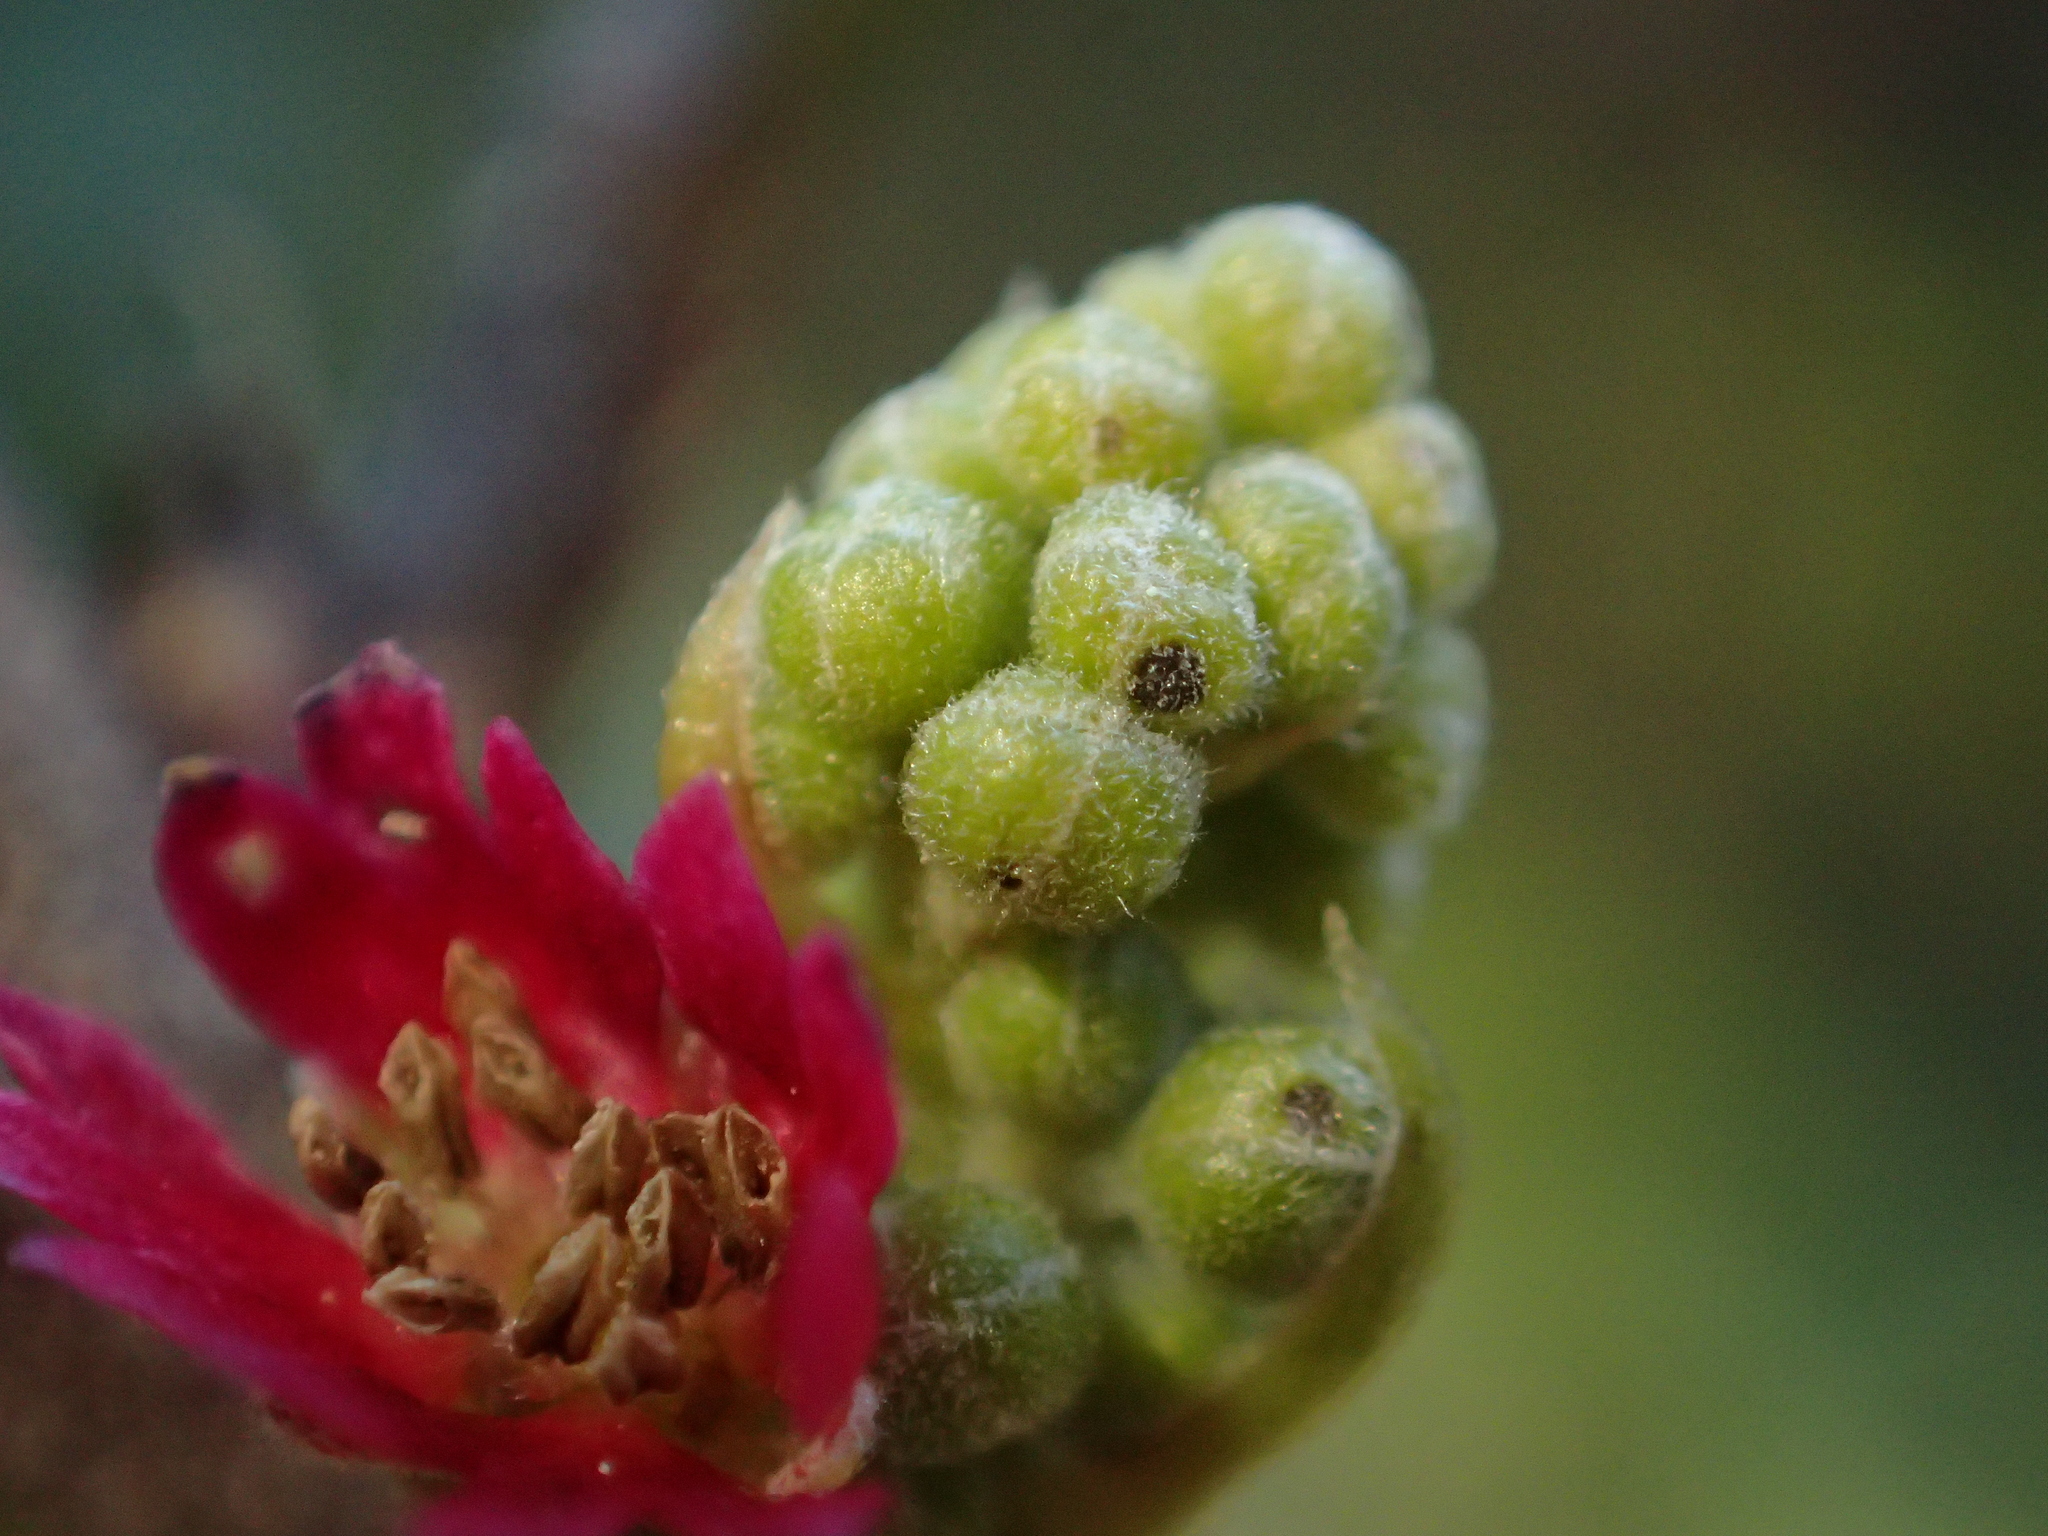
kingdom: Plantae
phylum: Tracheophyta
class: Magnoliopsida
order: Oxalidales
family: Elaeocarpaceae
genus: Aristotelia
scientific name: Aristotelia serrata
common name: New zealand wineberry
